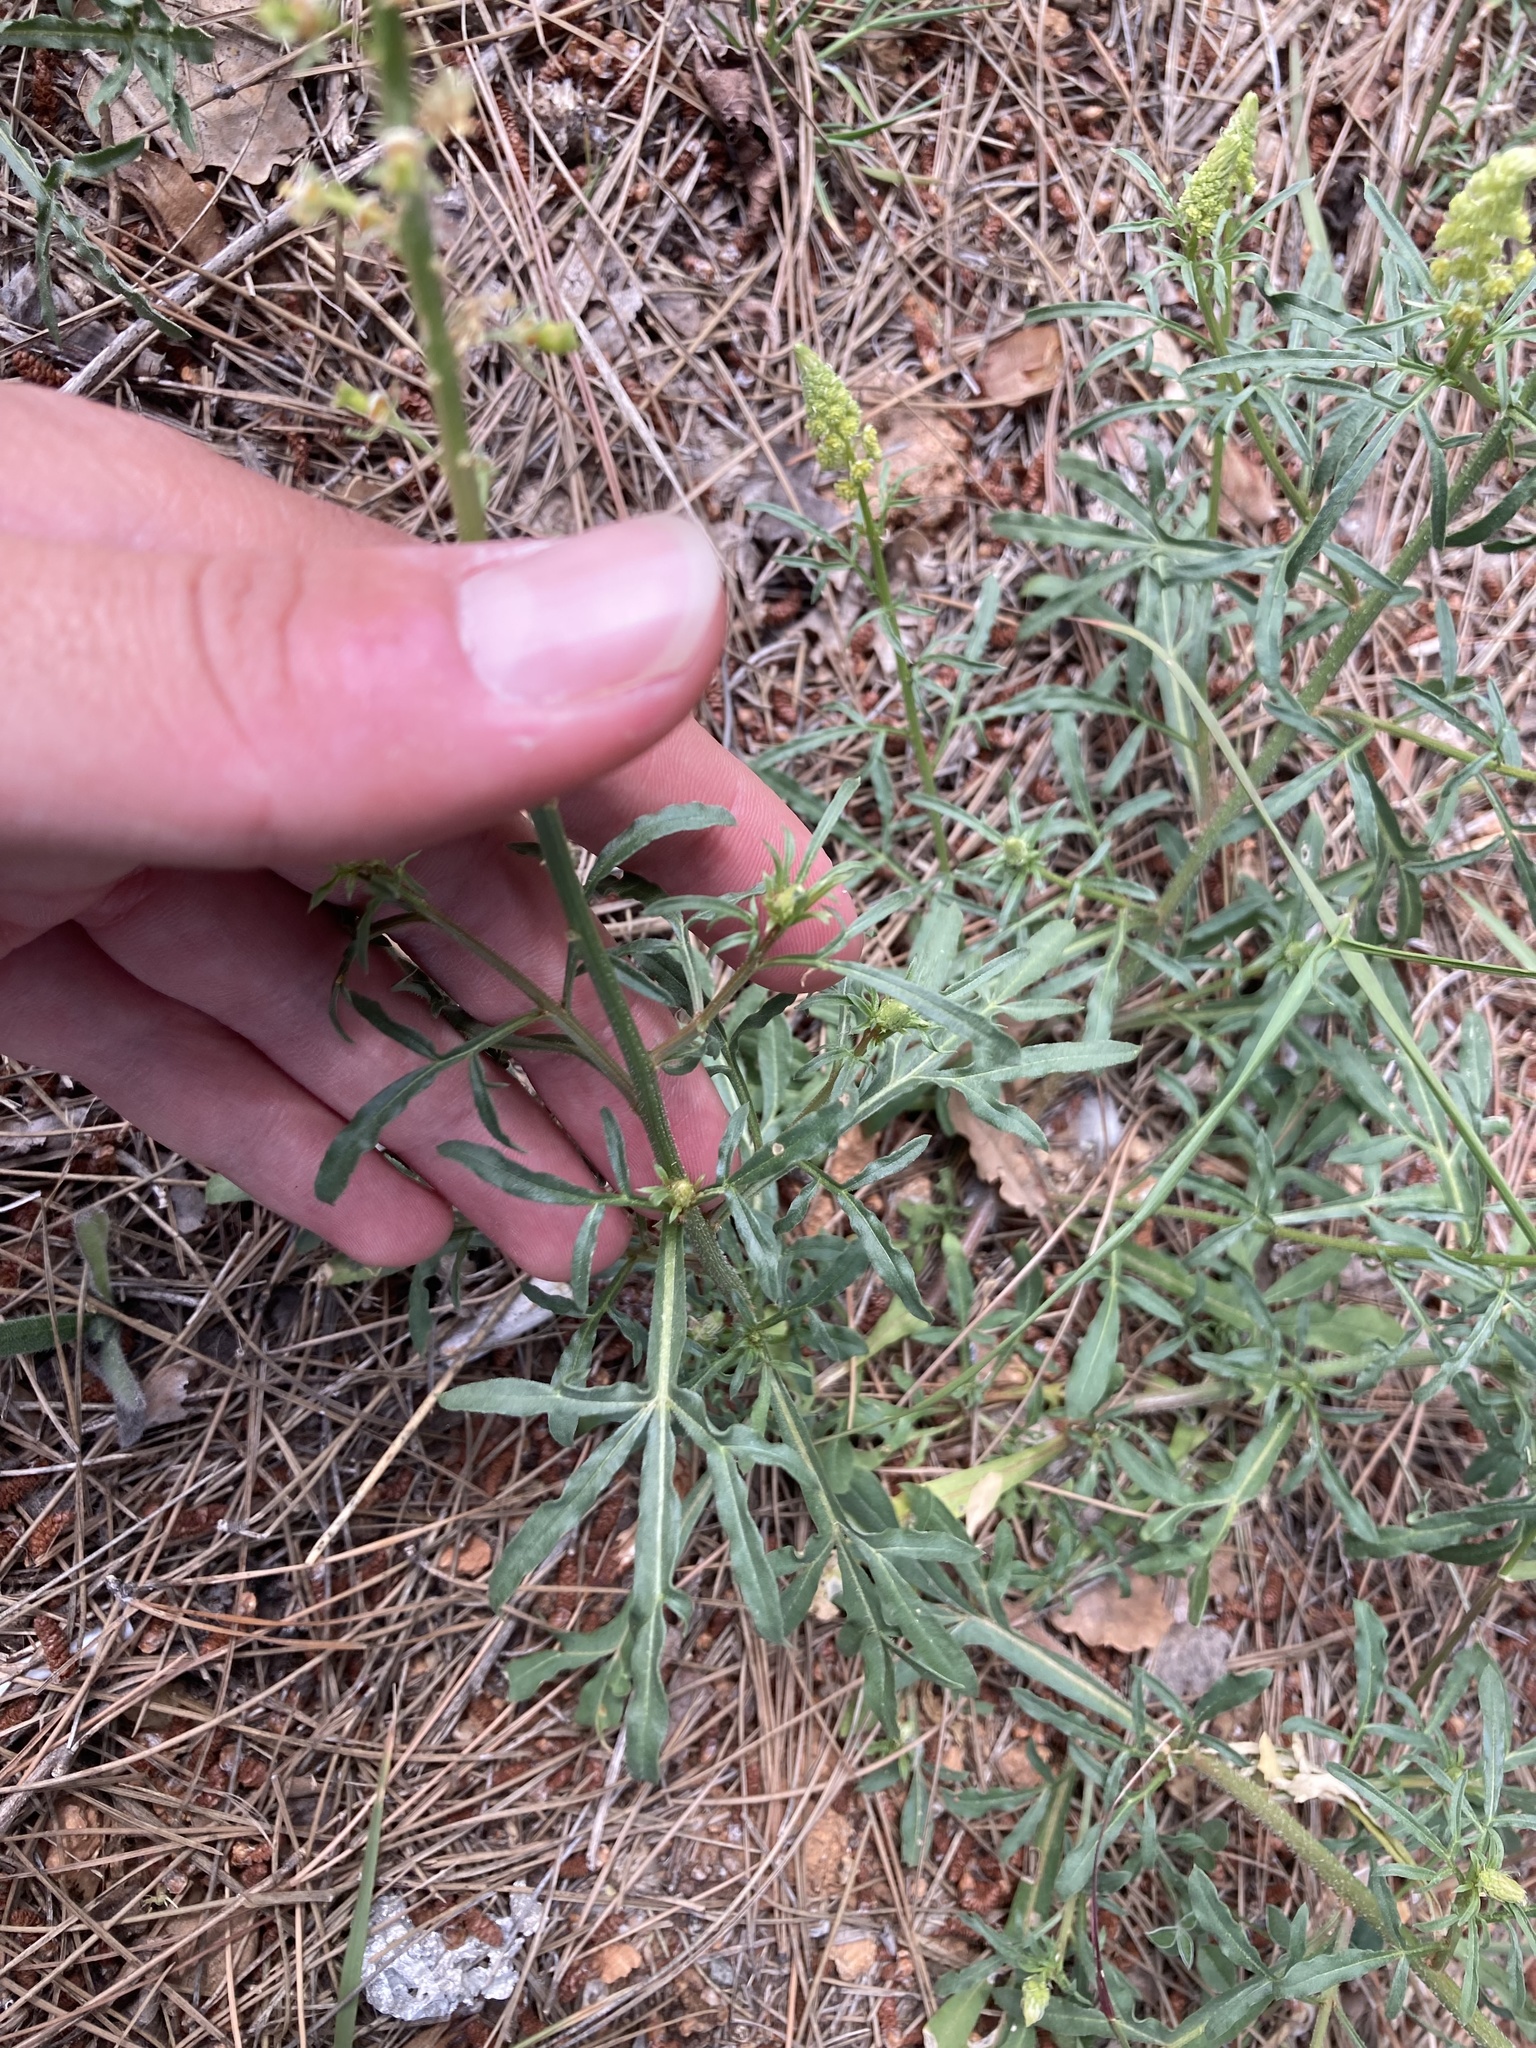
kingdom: Plantae
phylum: Tracheophyta
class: Magnoliopsida
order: Brassicales
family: Resedaceae
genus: Reseda
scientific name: Reseda lutea
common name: Wild mignonette
